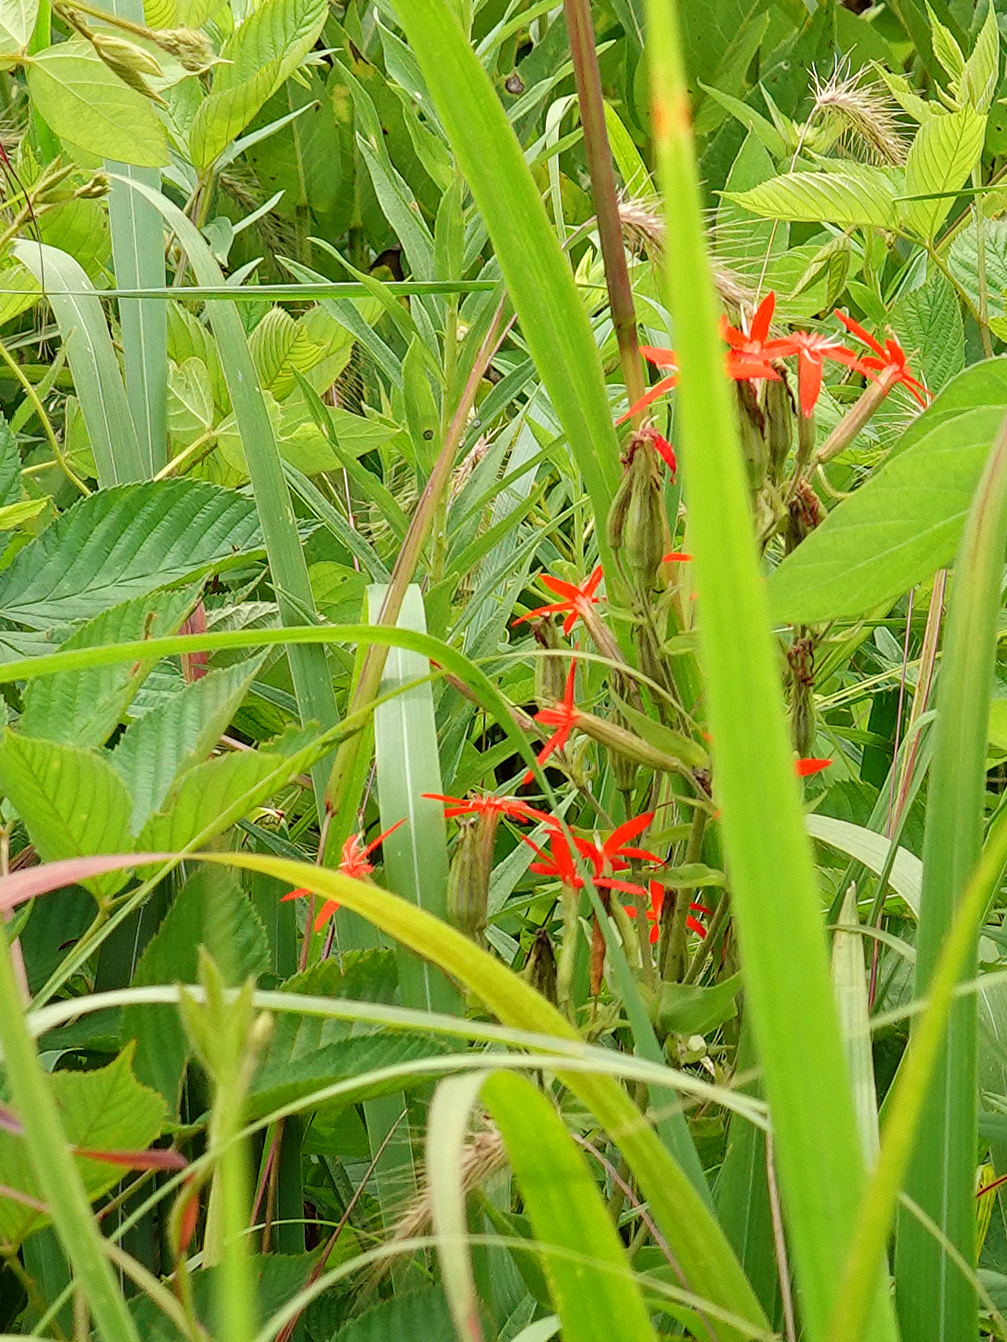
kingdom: Plantae
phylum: Tracheophyta
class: Magnoliopsida
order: Caryophyllales
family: Caryophyllaceae
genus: Silene
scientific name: Silene regia
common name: Royal catchfly
